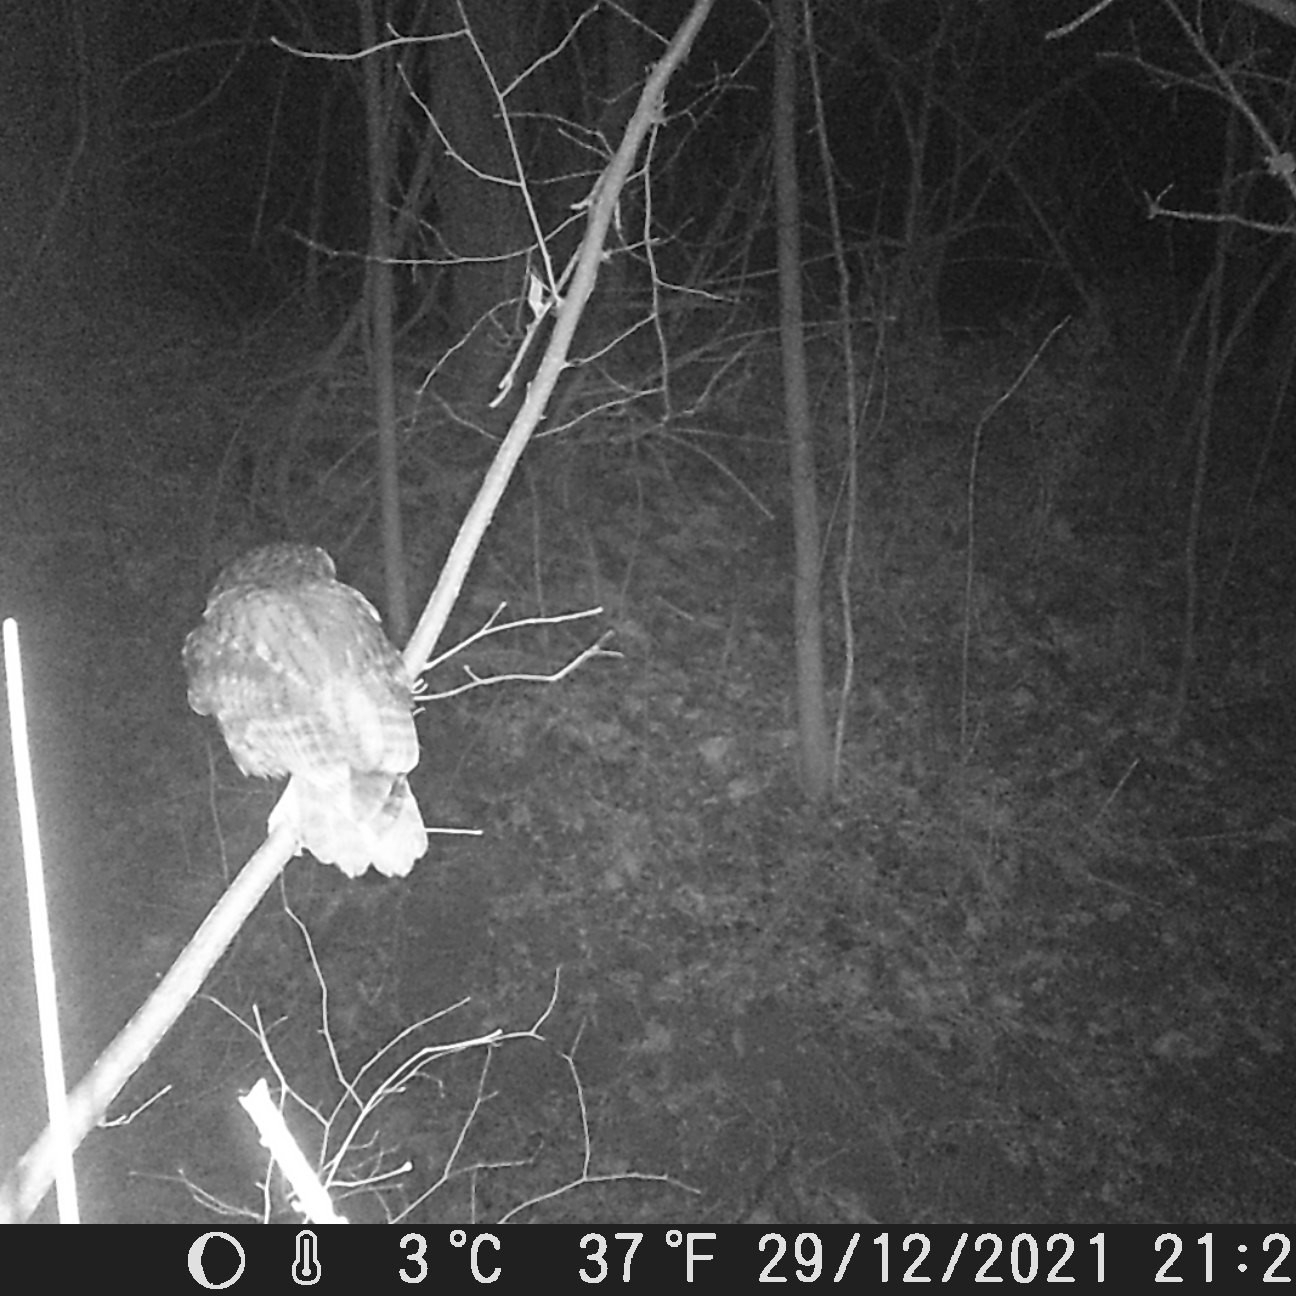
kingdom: Animalia
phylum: Chordata
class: Aves
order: Strigiformes
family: Strigidae
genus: Strix
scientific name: Strix aluco
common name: Tawny owl
